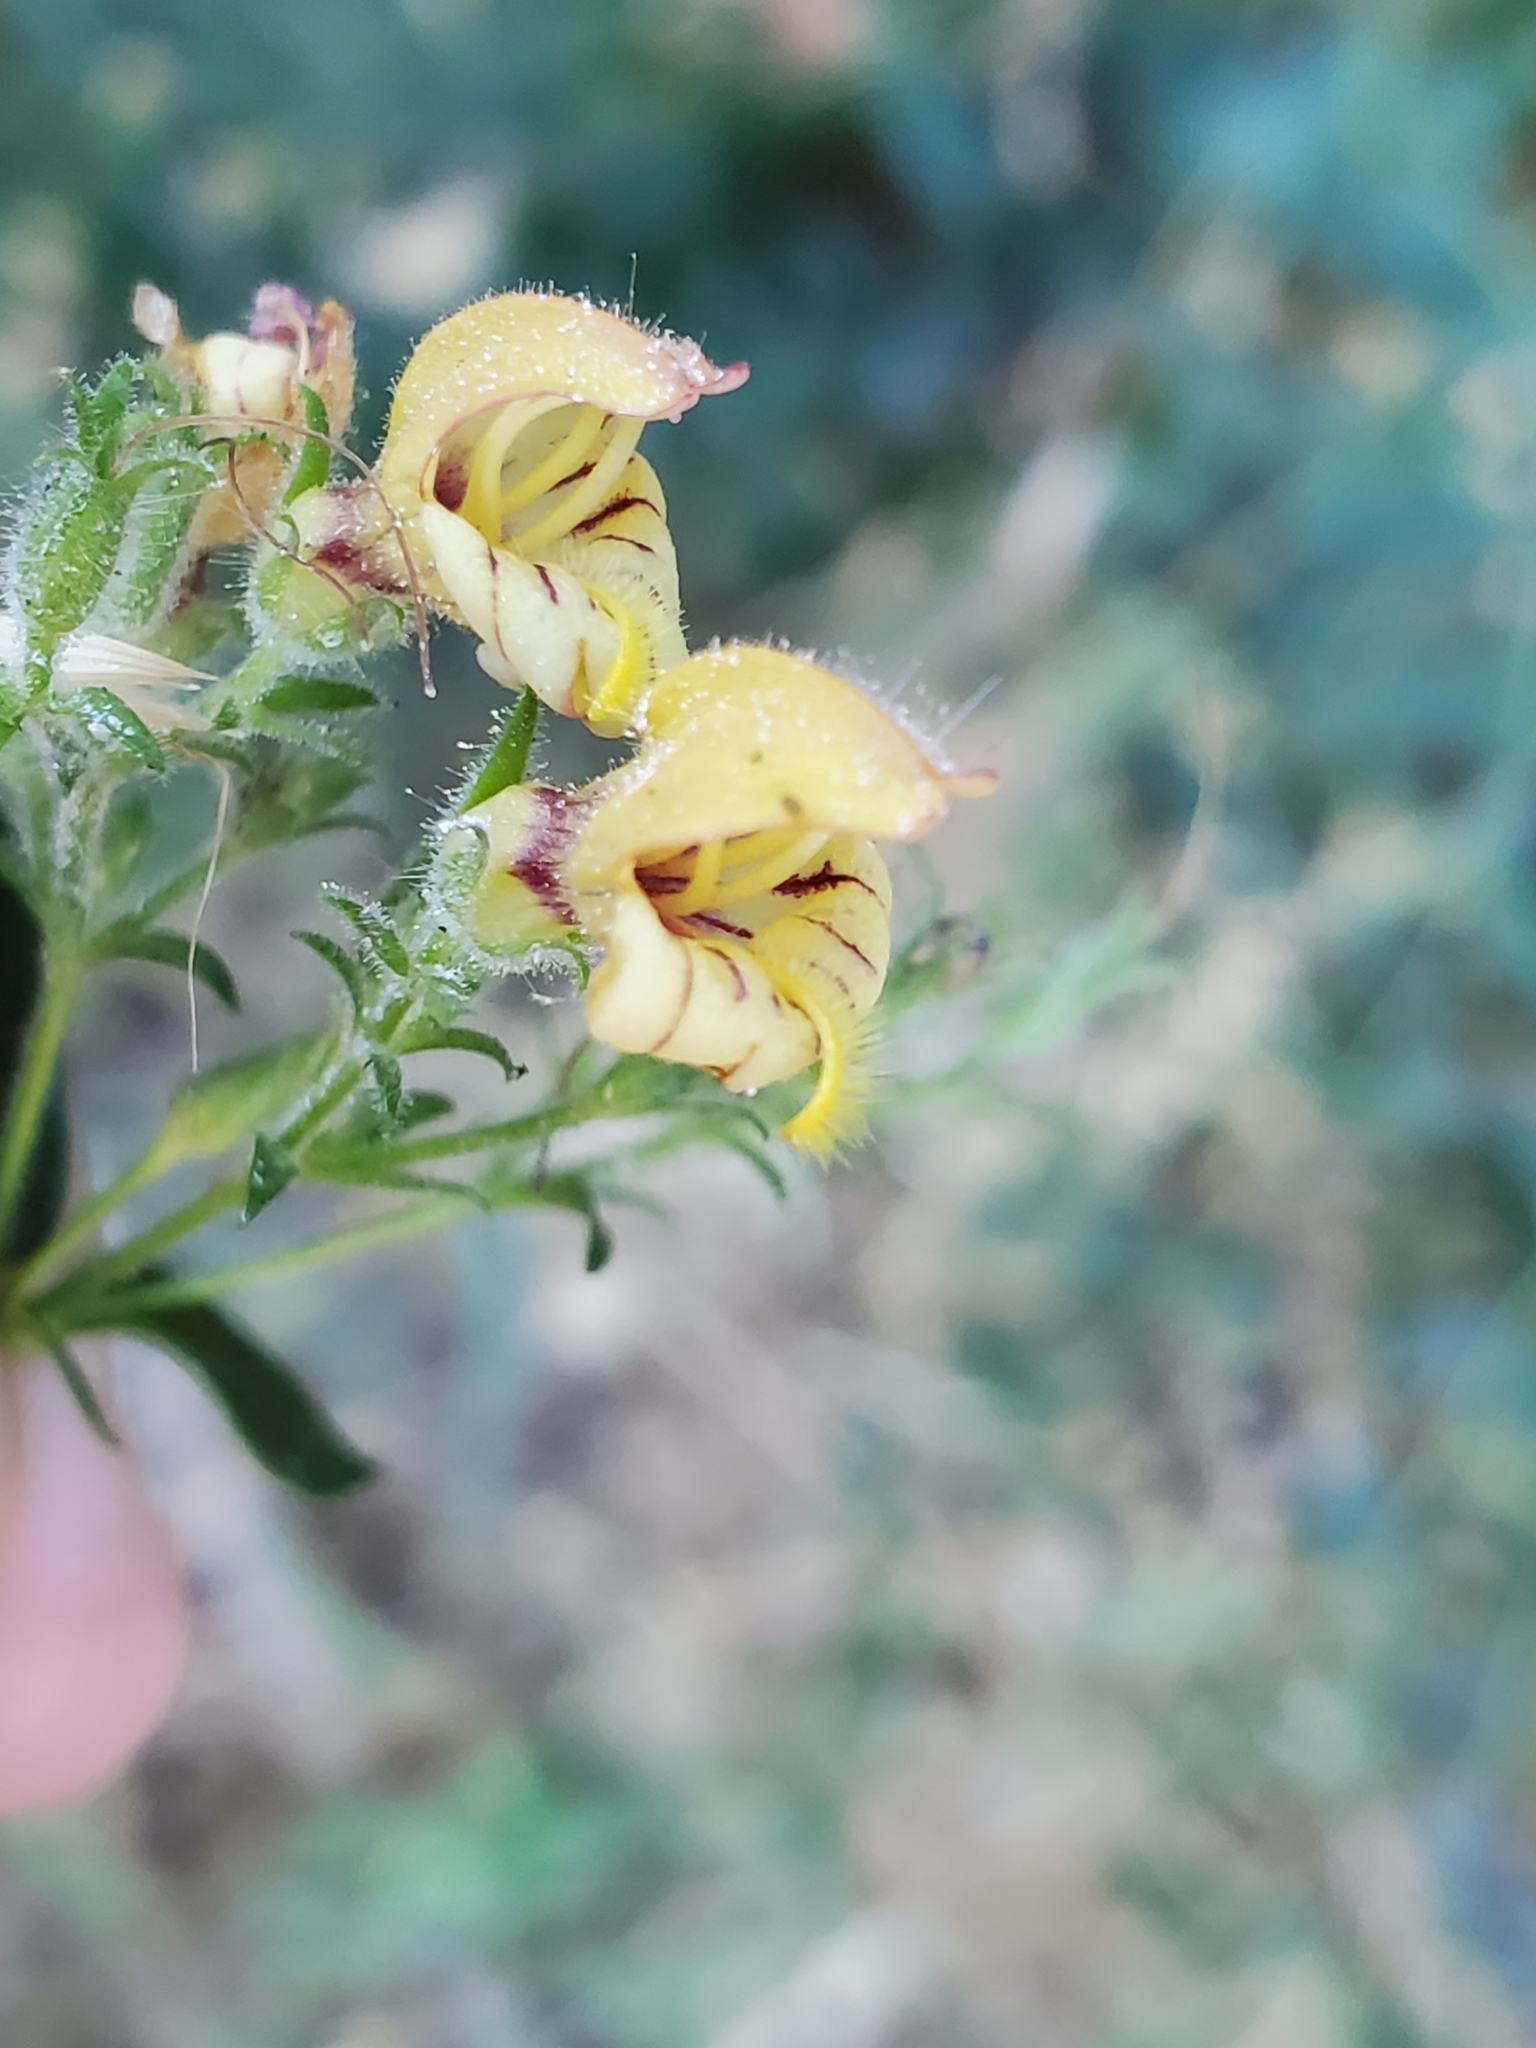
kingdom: Plantae
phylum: Tracheophyta
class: Magnoliopsida
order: Lamiales
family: Plantaginaceae
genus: Keckiella
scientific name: Keckiella lemmonii
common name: Lemmon's keckiella
